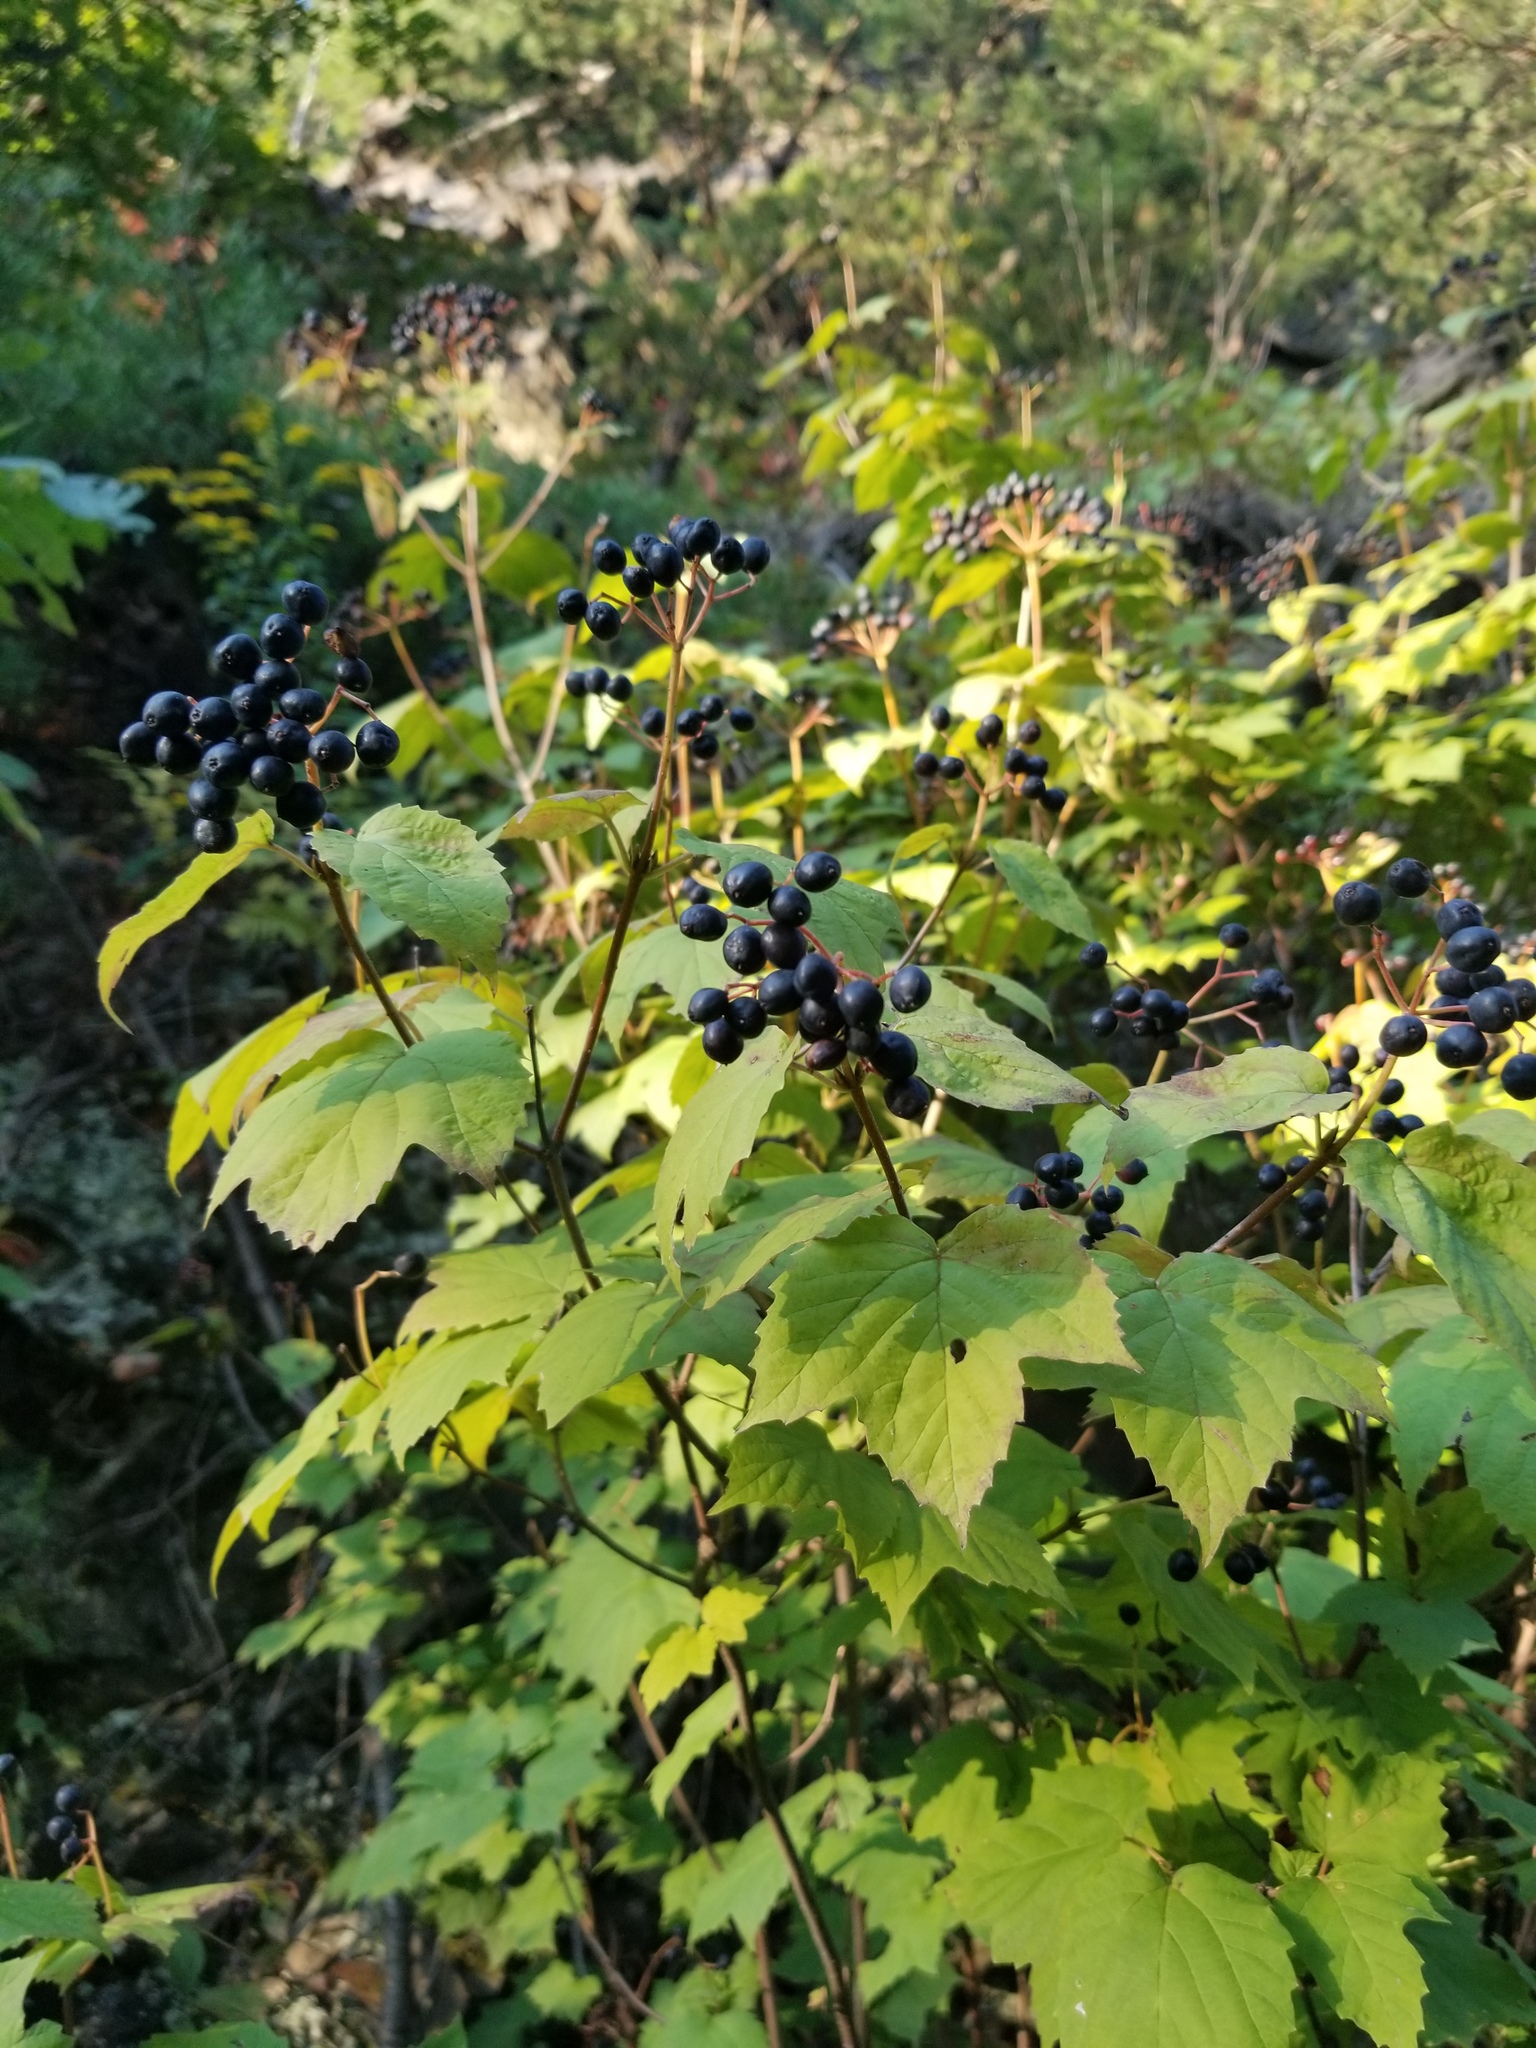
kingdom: Plantae
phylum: Tracheophyta
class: Magnoliopsida
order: Dipsacales
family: Viburnaceae
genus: Viburnum
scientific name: Viburnum acerifolium
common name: Dockmackie
